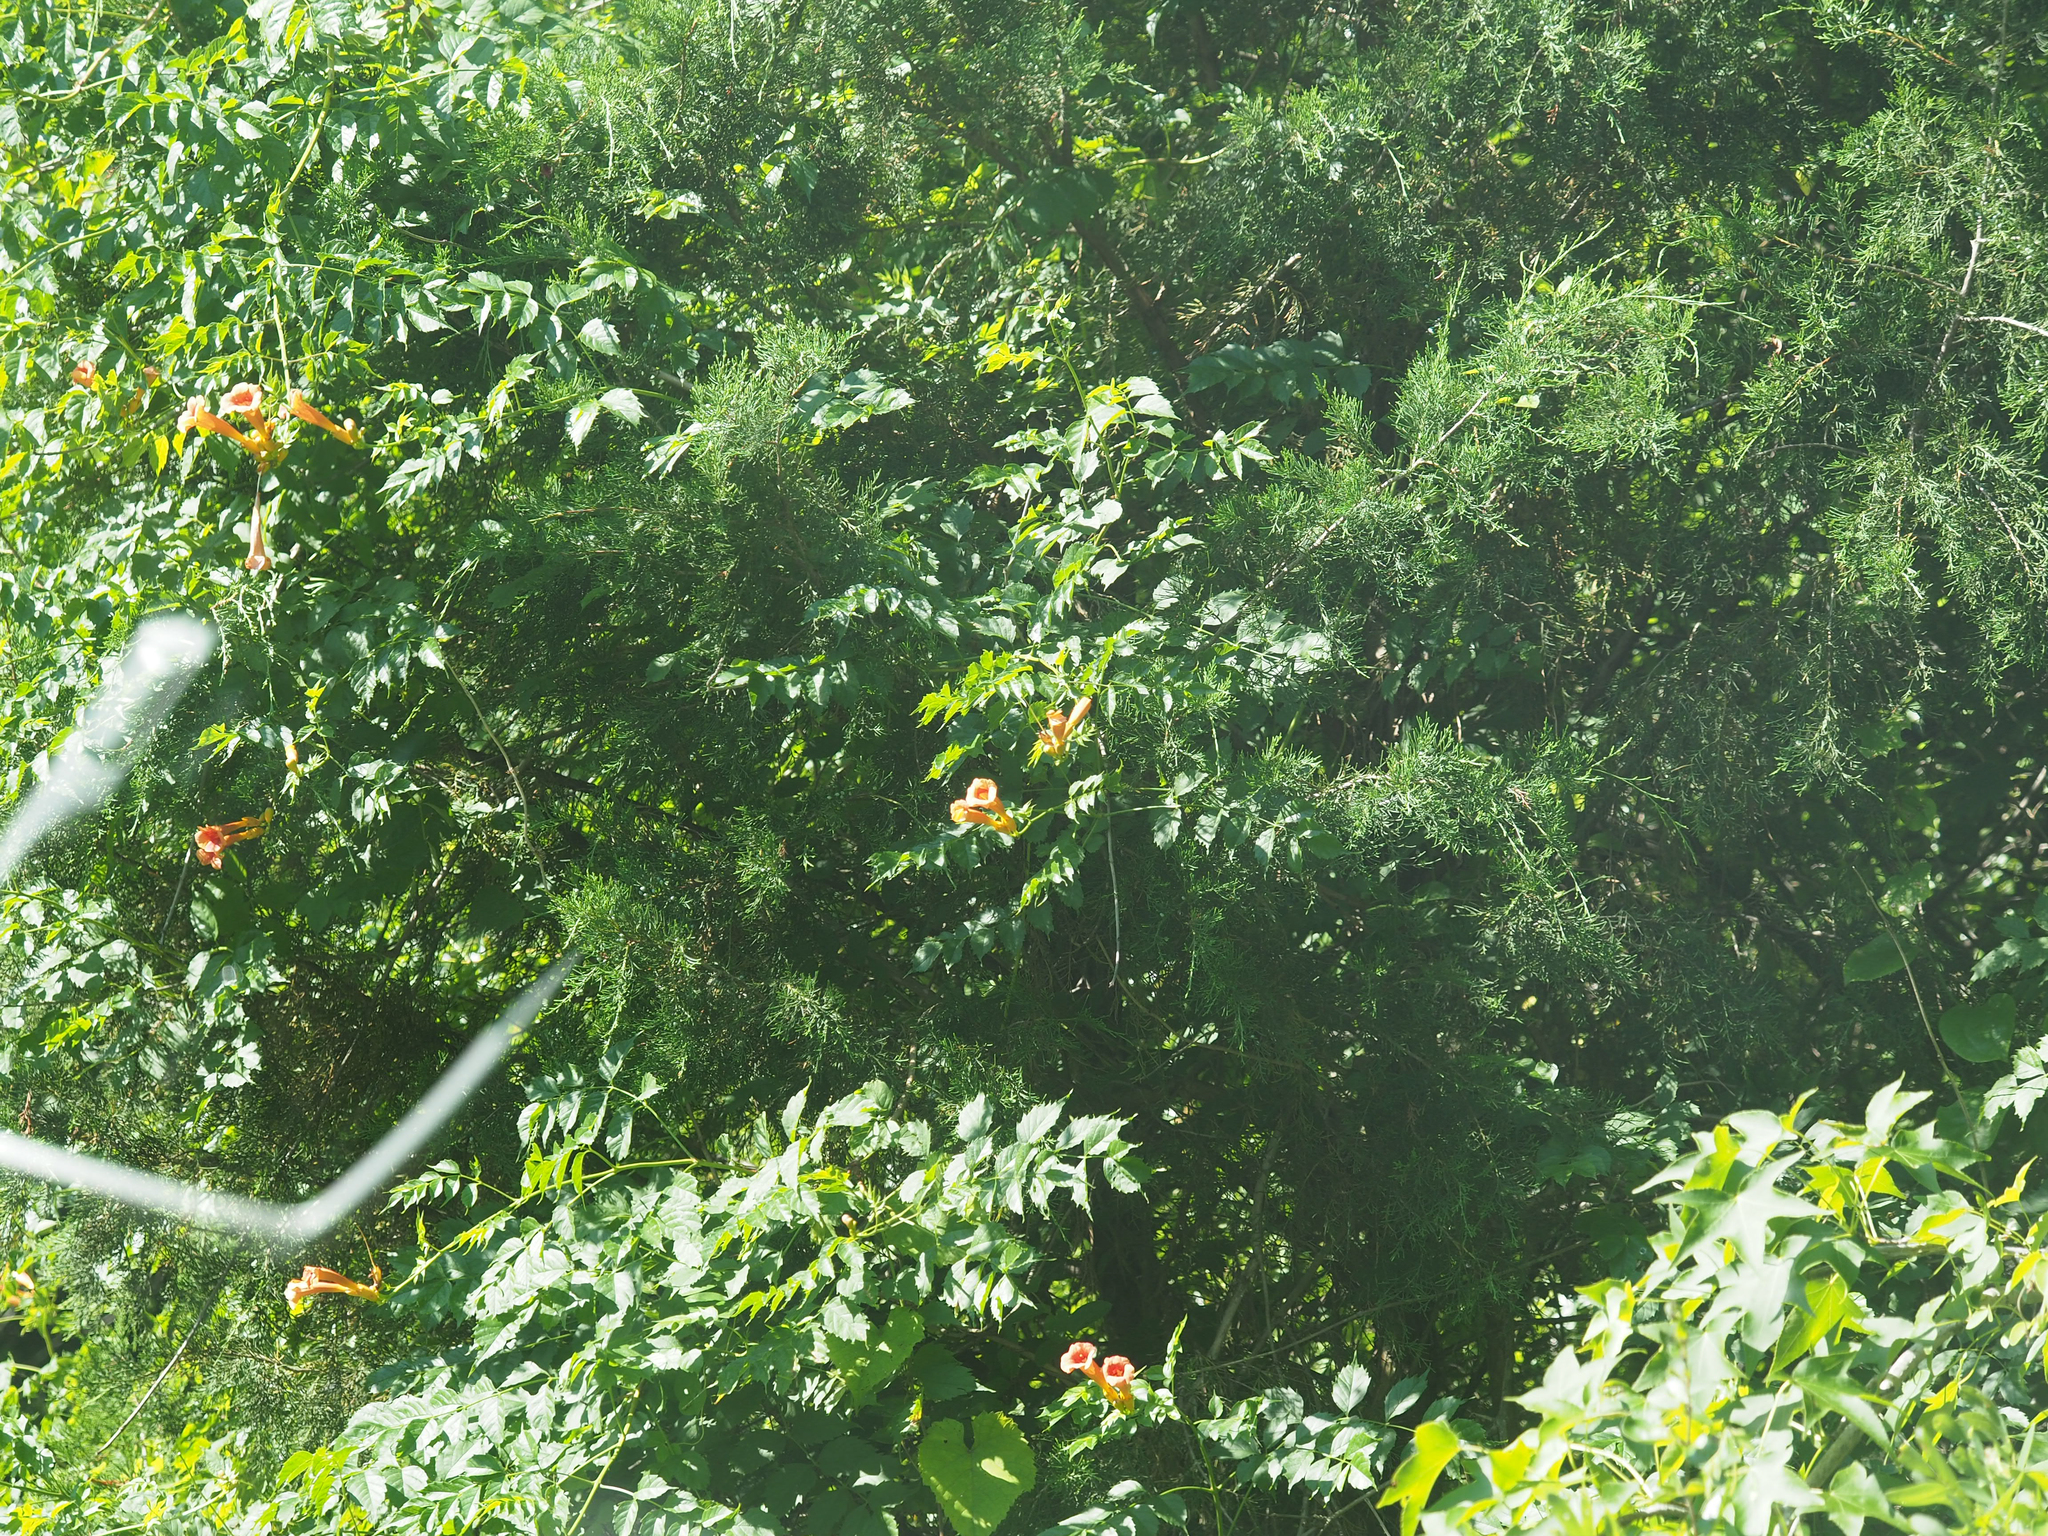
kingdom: Plantae
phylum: Tracheophyta
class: Magnoliopsida
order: Lamiales
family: Bignoniaceae
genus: Campsis
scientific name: Campsis radicans
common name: Trumpet-creeper
